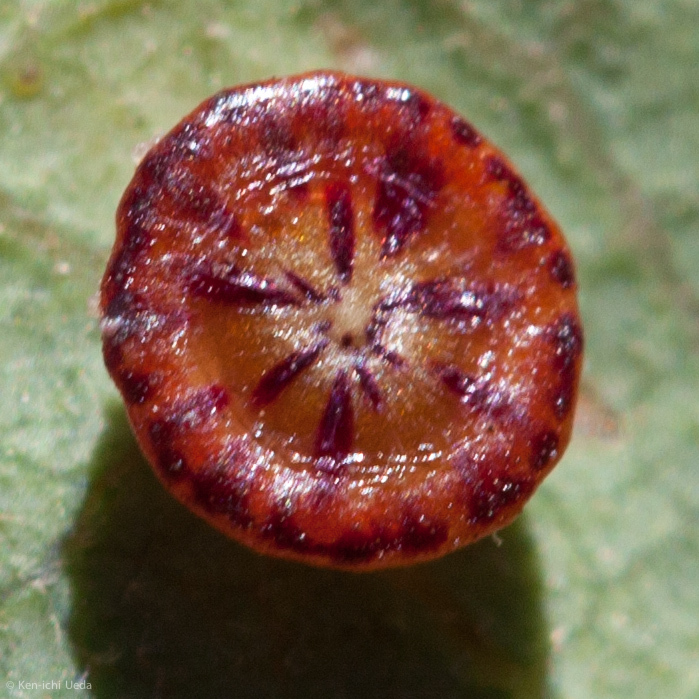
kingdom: Animalia
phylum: Arthropoda
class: Insecta
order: Hymenoptera
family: Cynipidae
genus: Andricus
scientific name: Andricus
